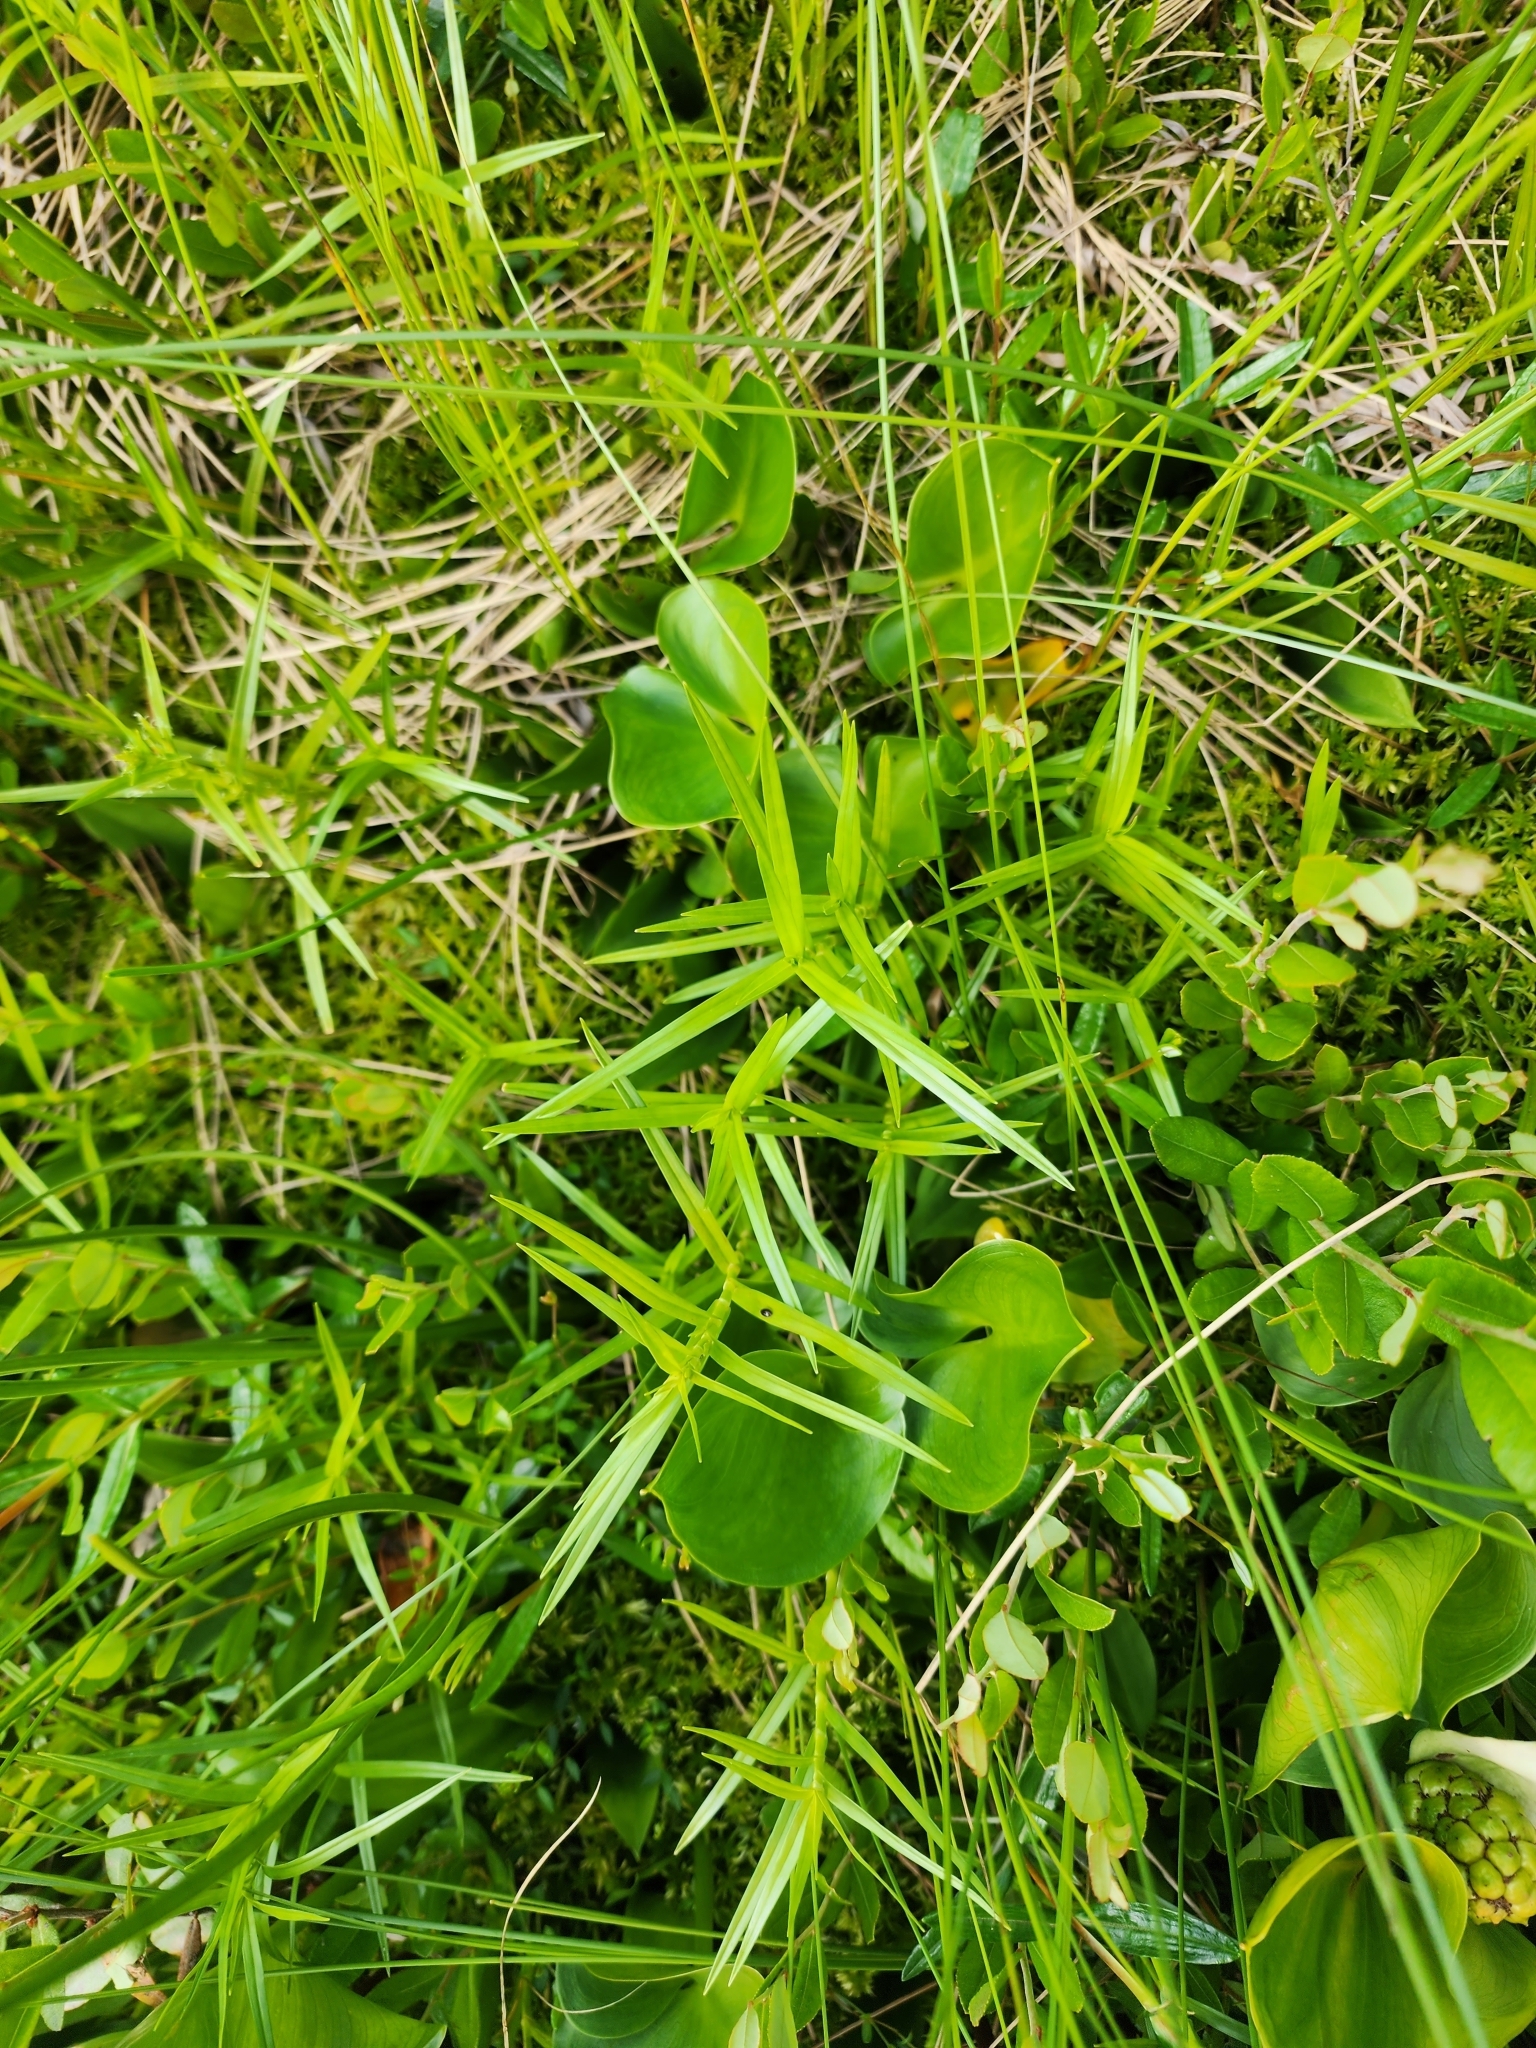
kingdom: Plantae
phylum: Tracheophyta
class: Liliopsida
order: Poales
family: Cyperaceae
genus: Dulichium
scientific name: Dulichium arundinaceum
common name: Three-way sedge
